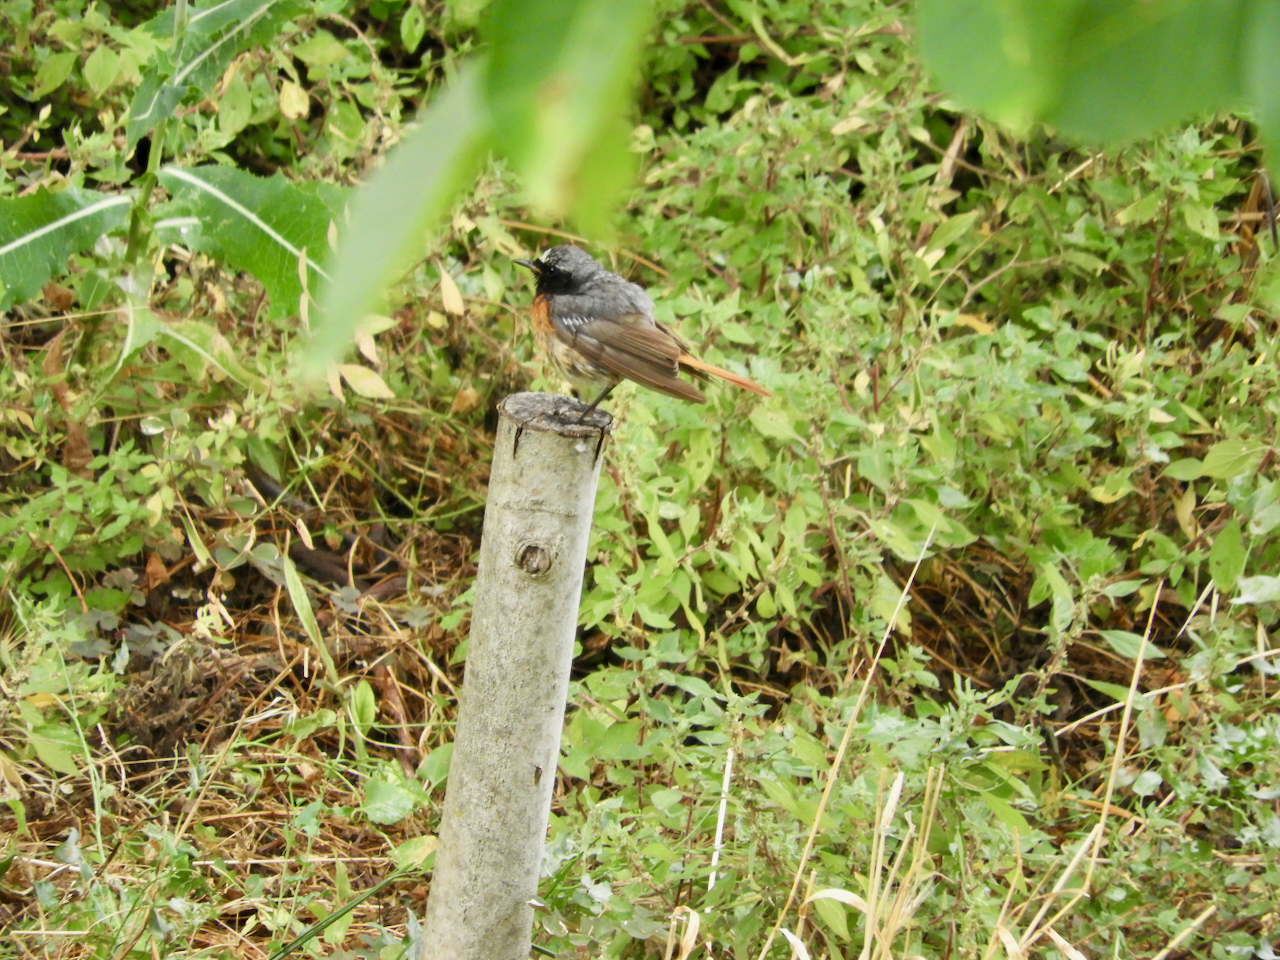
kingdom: Animalia
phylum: Chordata
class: Aves
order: Passeriformes
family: Muscicapidae
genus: Phoenicurus
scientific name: Phoenicurus phoenicurus
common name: Common redstart
